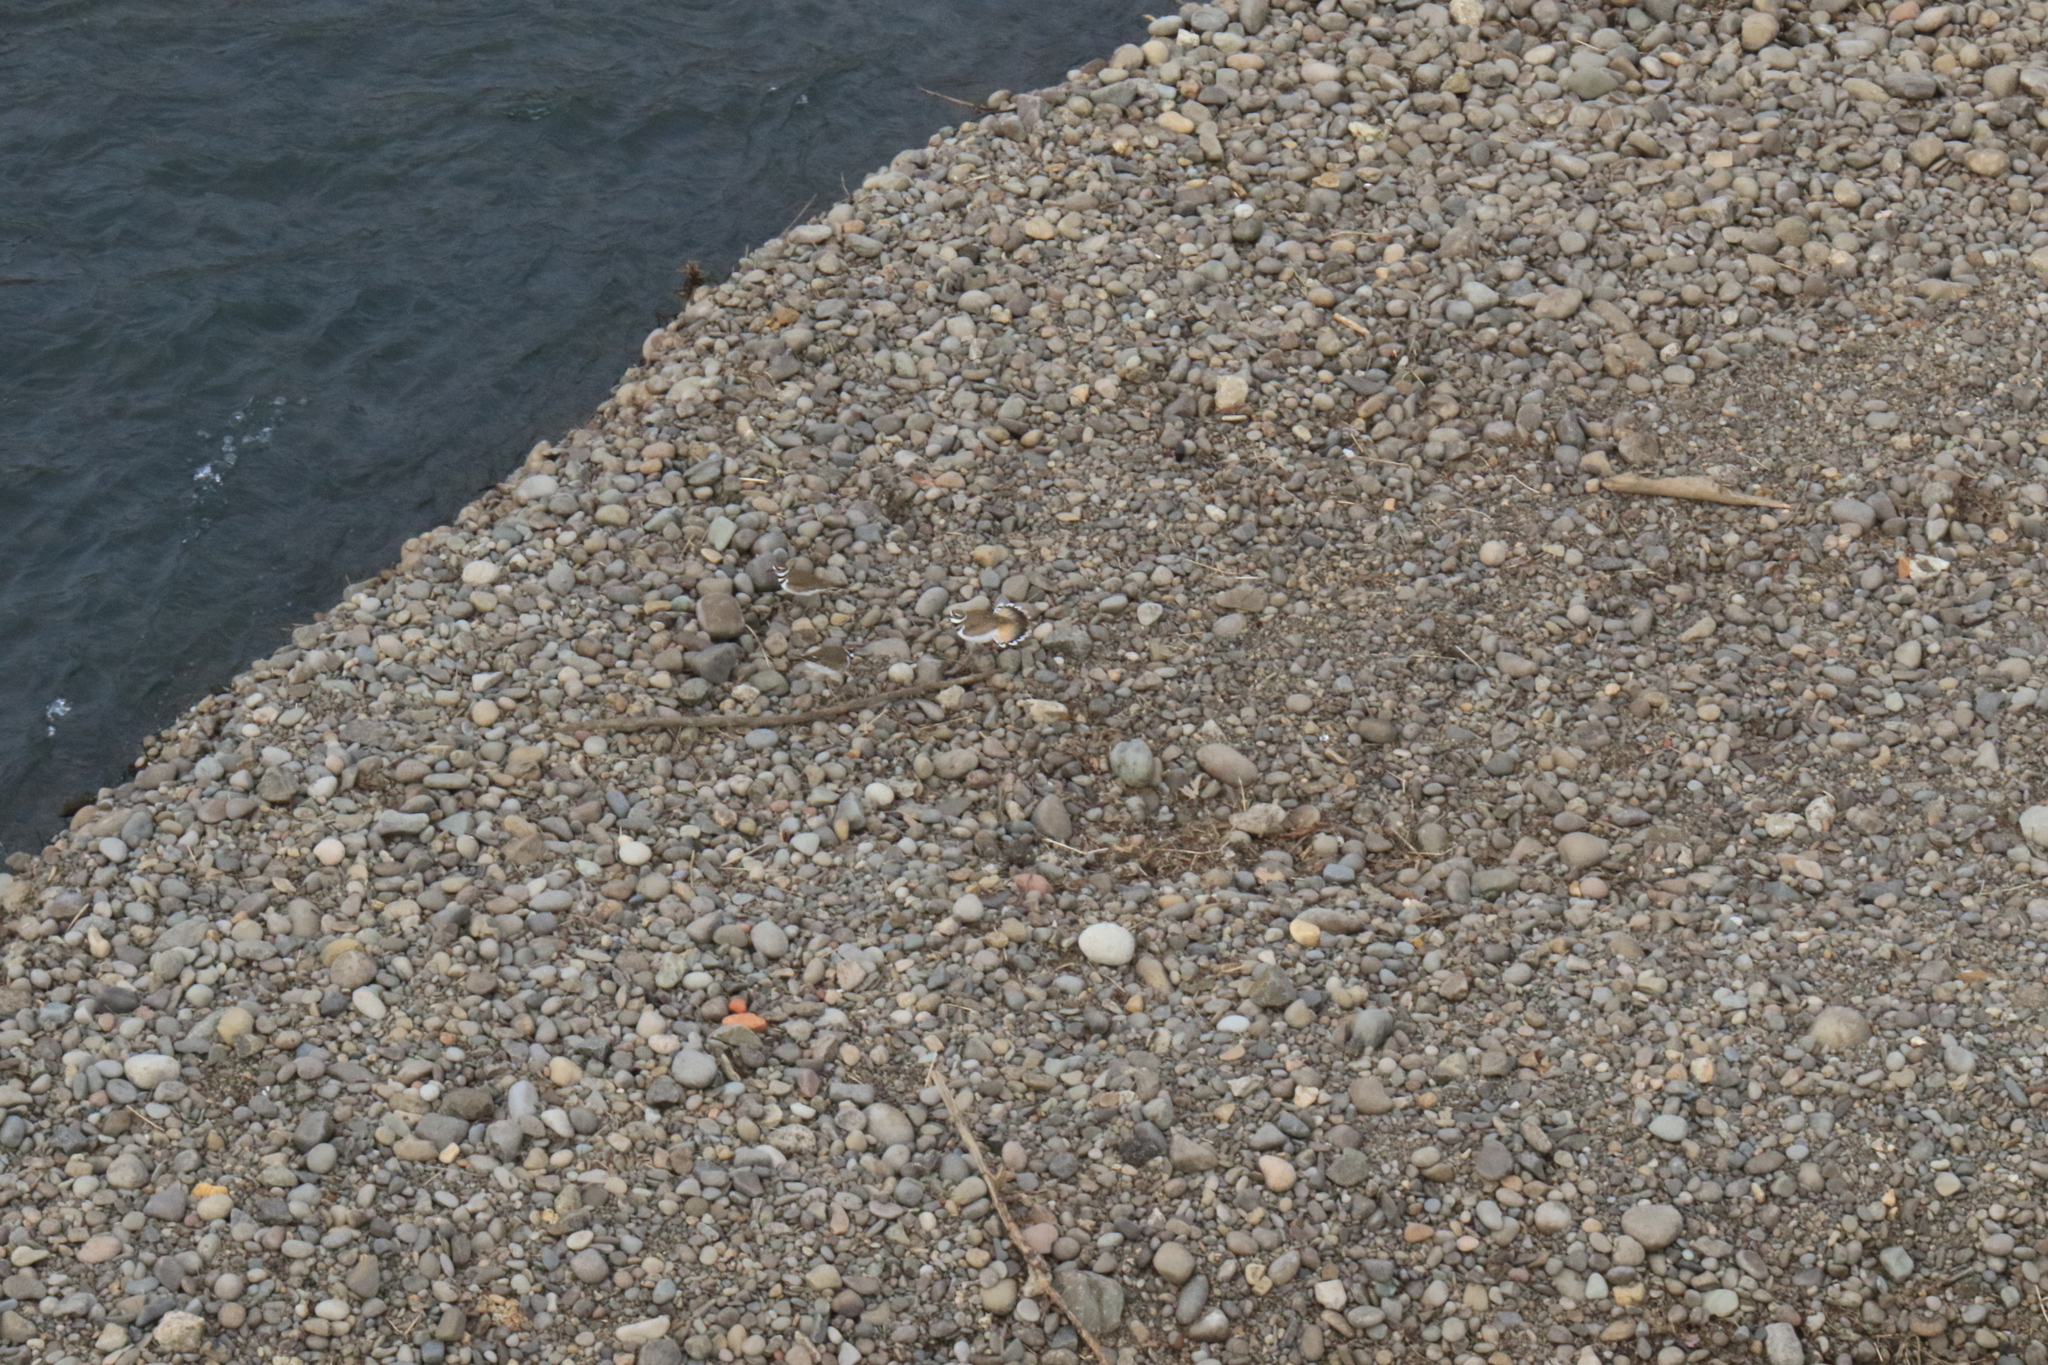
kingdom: Animalia
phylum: Chordata
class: Aves
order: Charadriiformes
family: Charadriidae
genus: Charadrius
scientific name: Charadrius vociferus
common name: Killdeer
